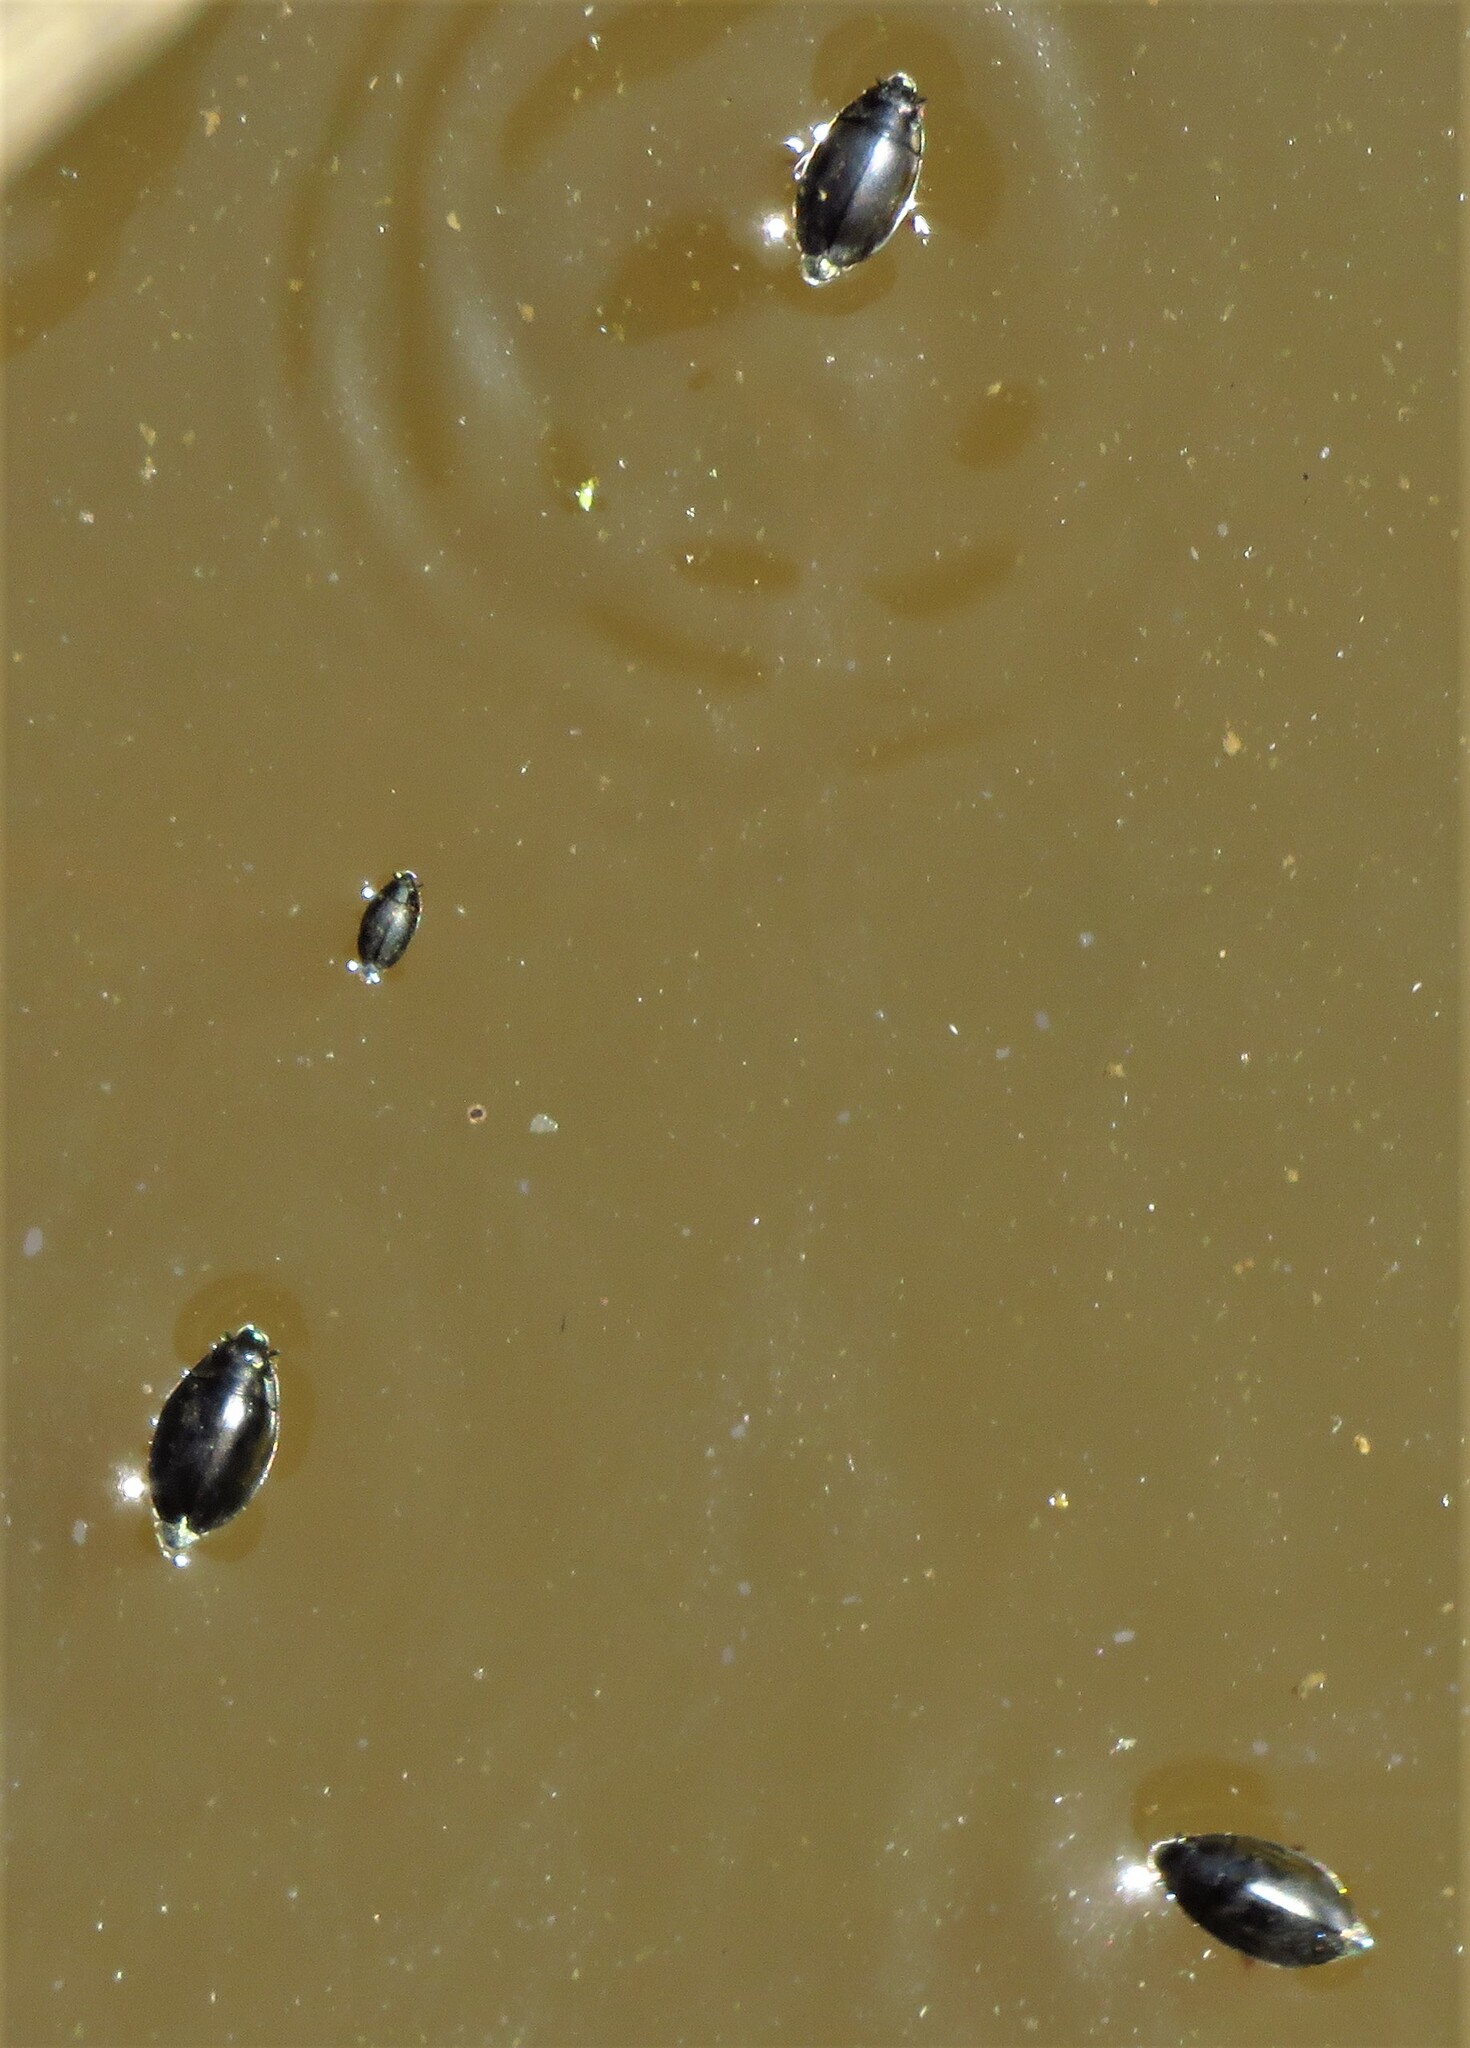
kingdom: Animalia
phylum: Arthropoda
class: Insecta
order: Coleoptera
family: Gyrinidae
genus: Dineutus
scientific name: Dineutus
